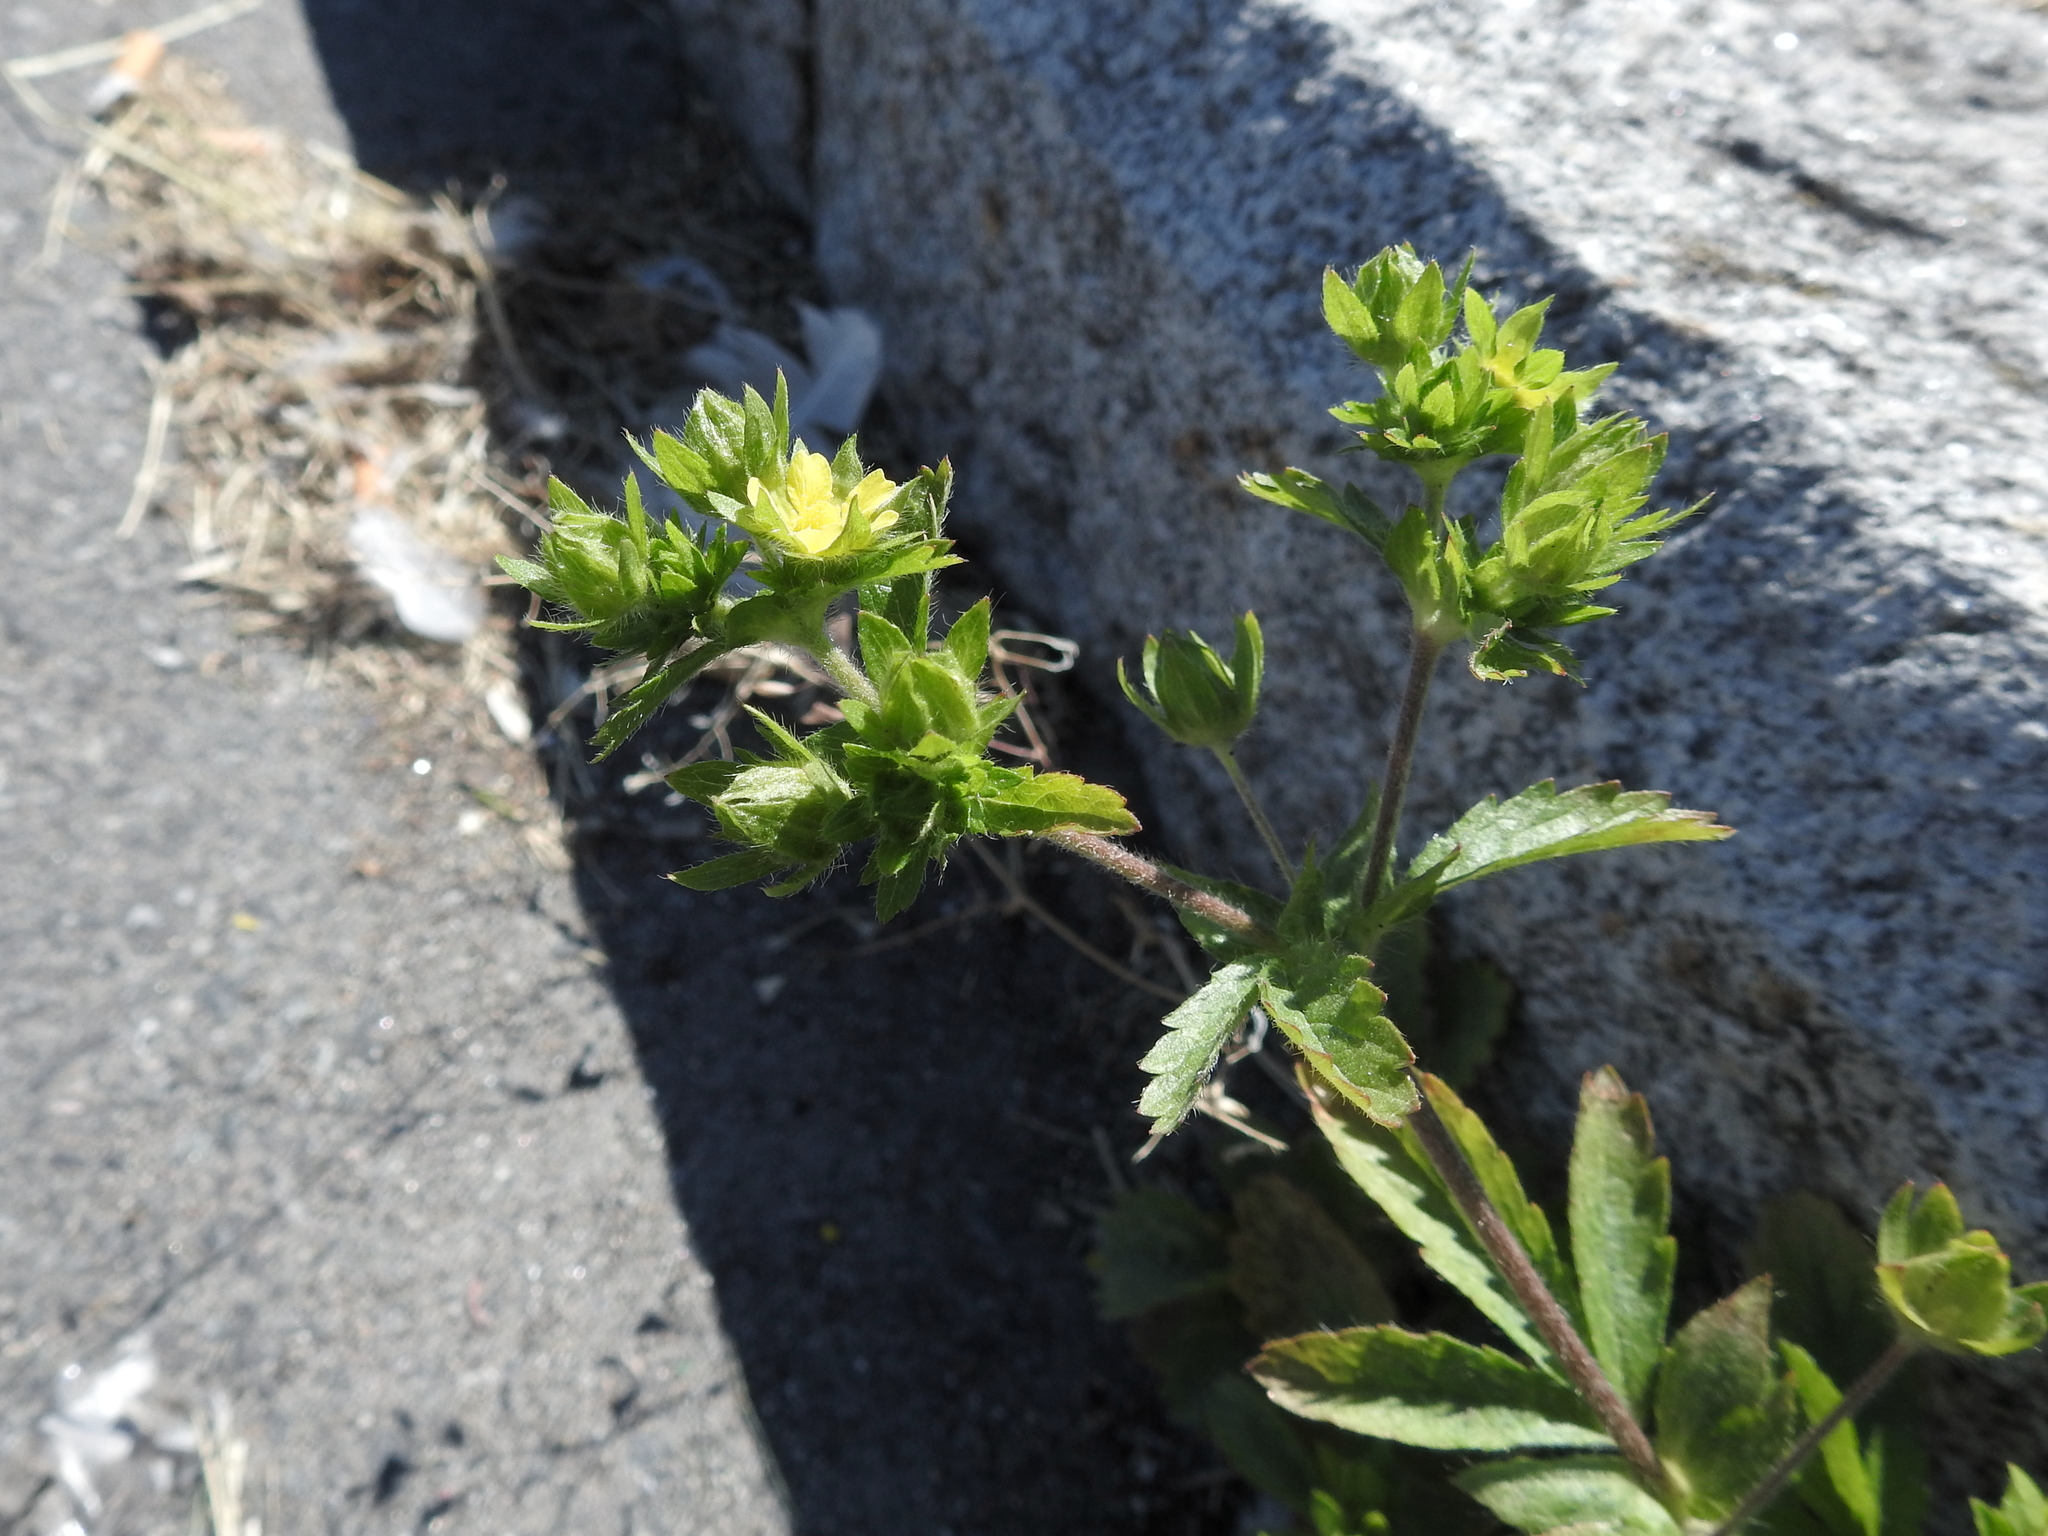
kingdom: Plantae
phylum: Tracheophyta
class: Magnoliopsida
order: Rosales
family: Rosaceae
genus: Potentilla
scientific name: Potentilla norvegica
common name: Ternate-leaved cinquefoil
